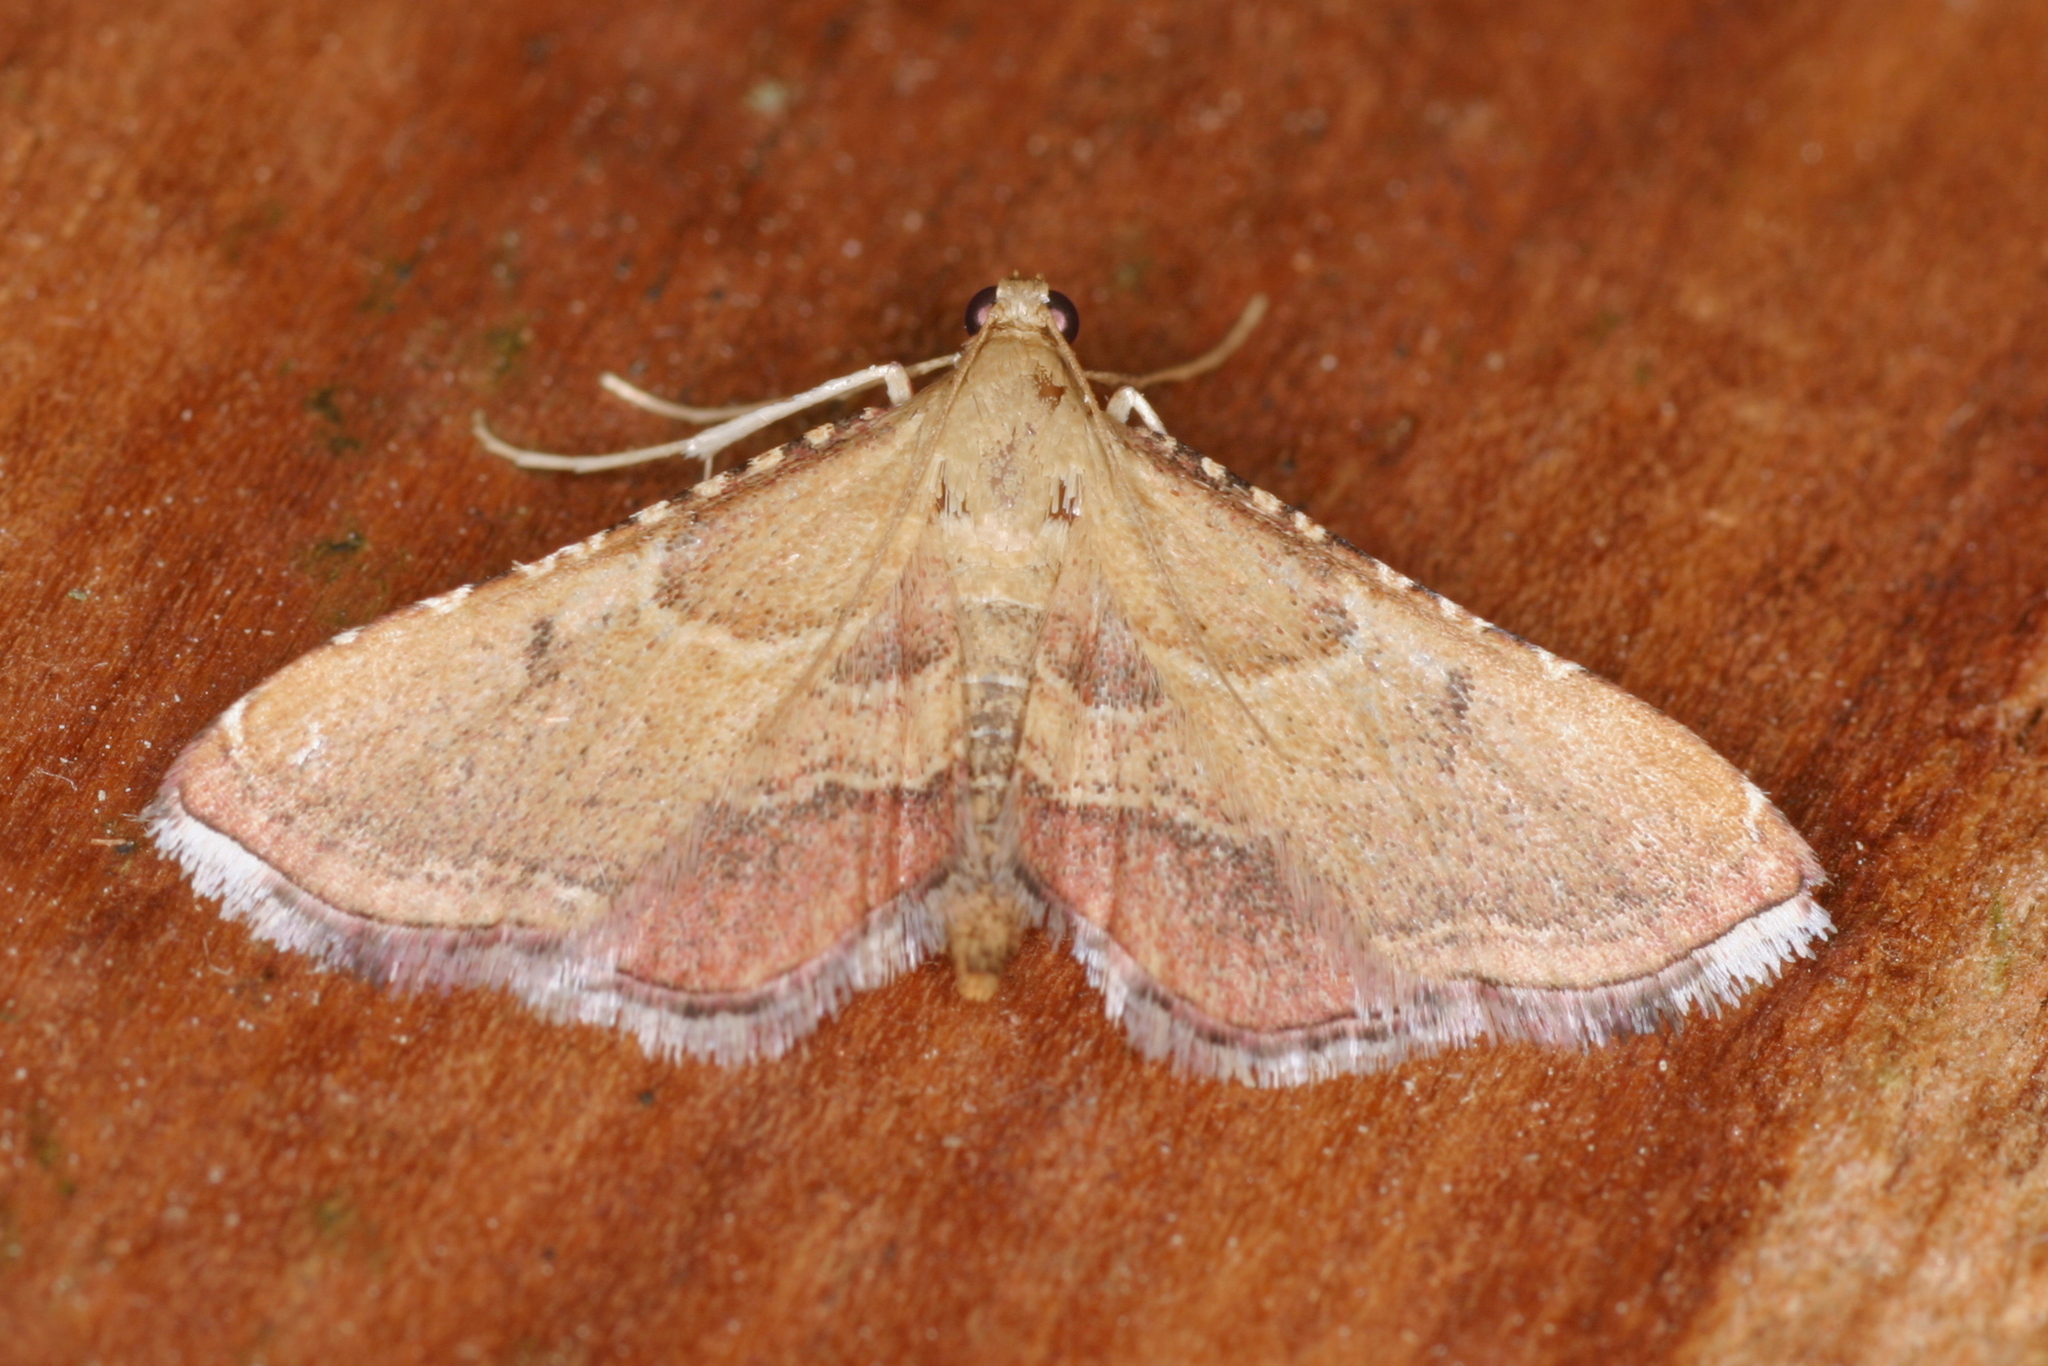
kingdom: Animalia
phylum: Arthropoda
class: Insecta
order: Lepidoptera
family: Pyralidae
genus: Endotricha
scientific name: Endotricha flammealis
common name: Rosy tabby
